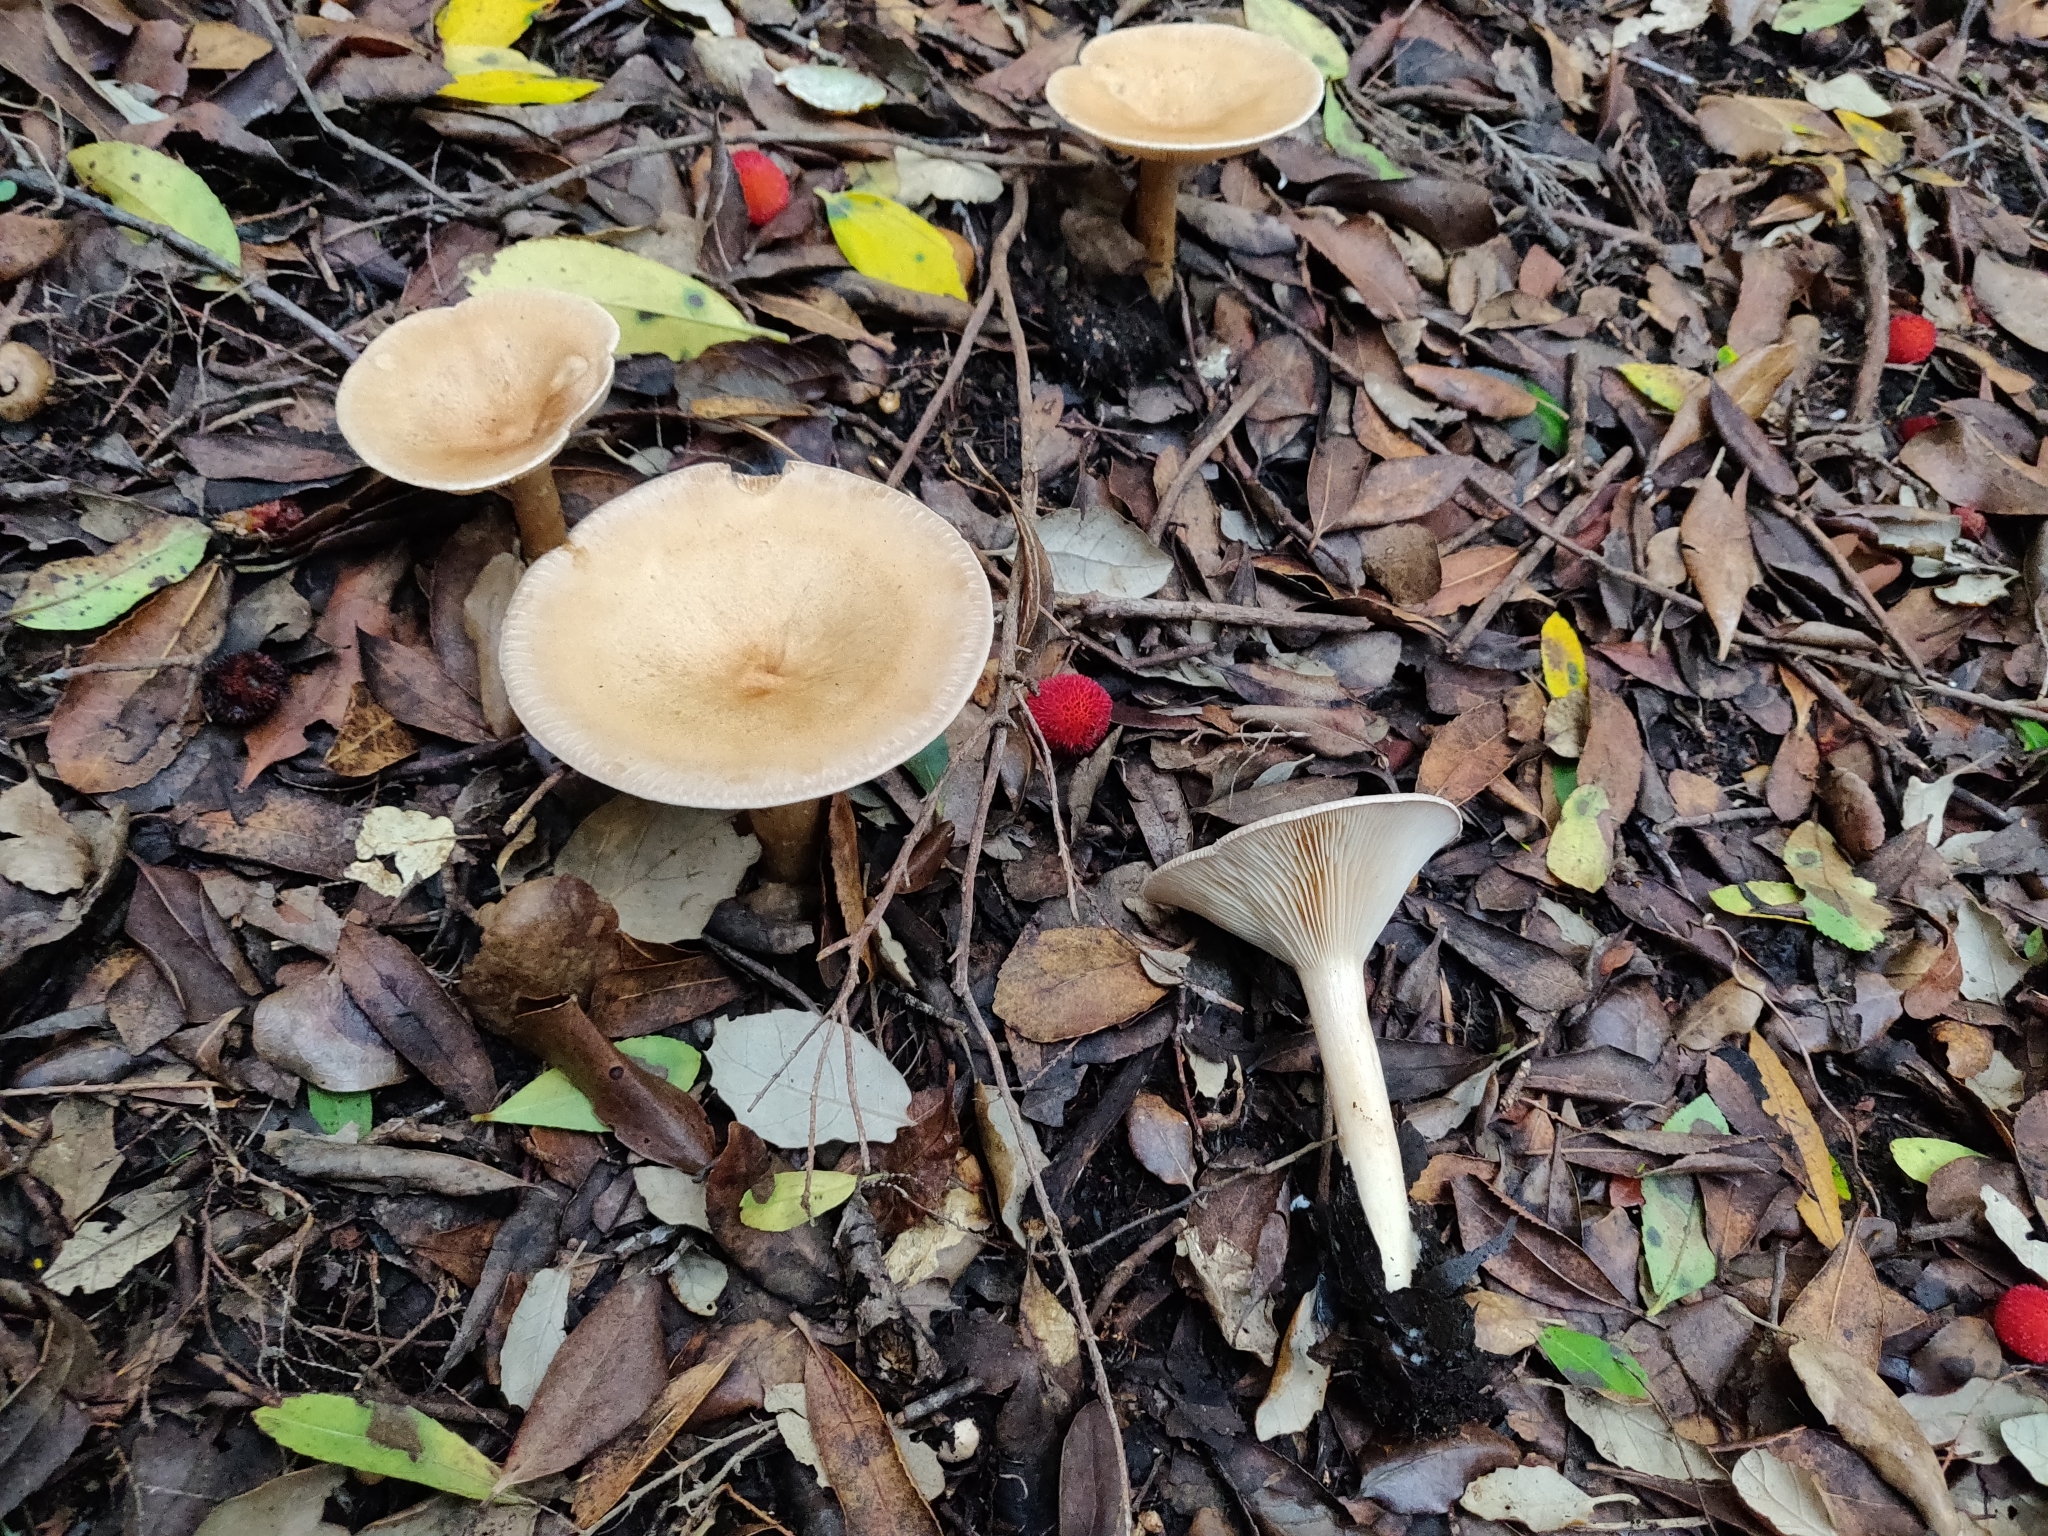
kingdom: Fungi
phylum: Basidiomycota
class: Agaricomycetes
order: Agaricales
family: Tricholomataceae
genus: Infundibulicybe
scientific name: Infundibulicybe geotropa
